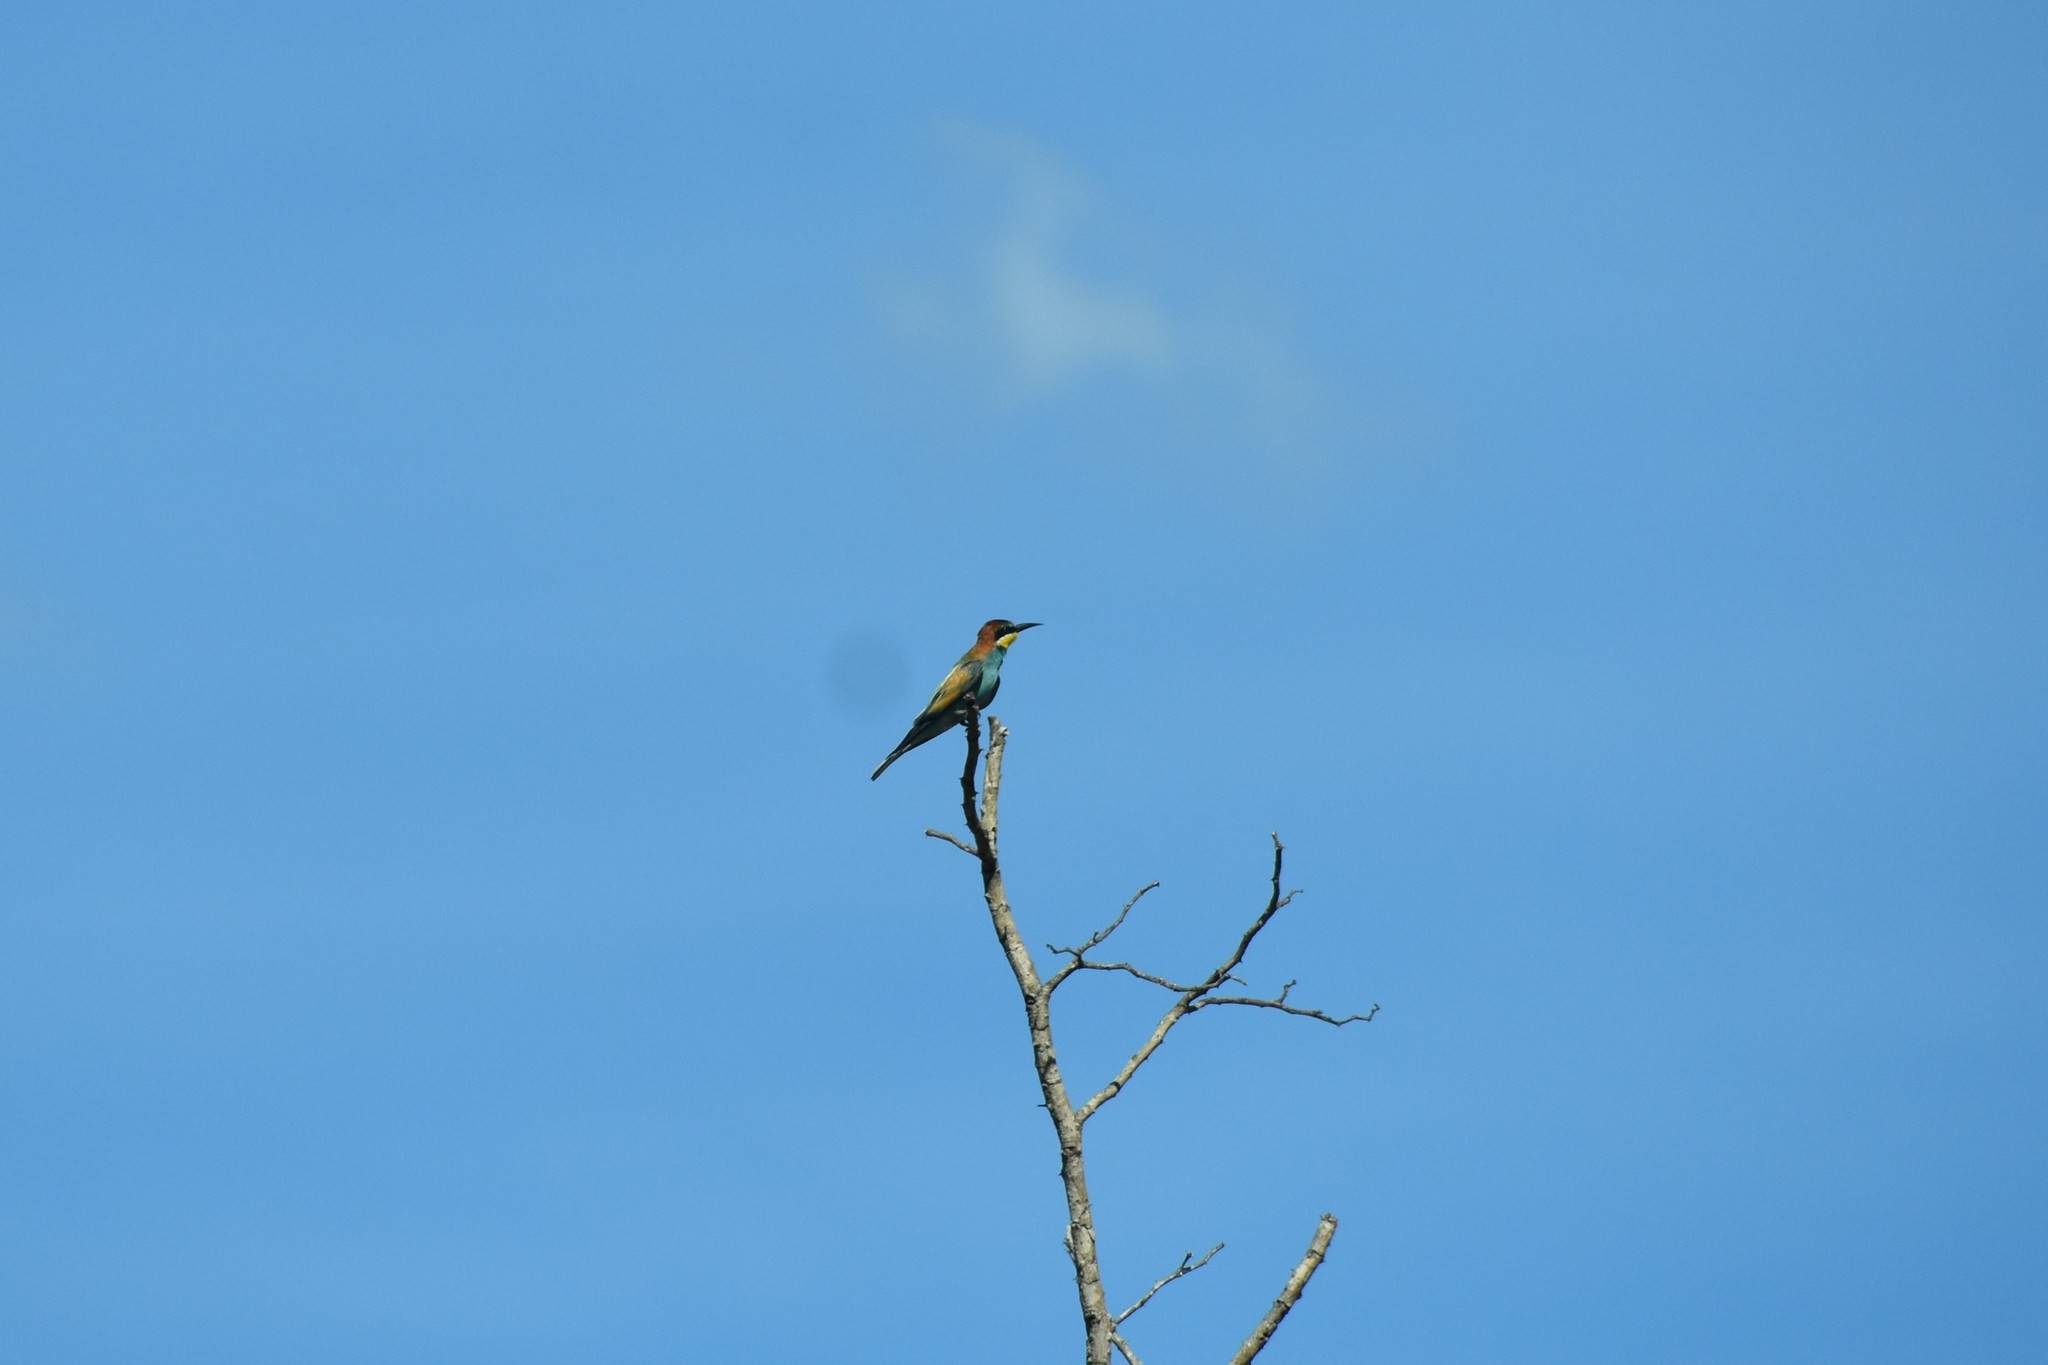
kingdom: Animalia
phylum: Chordata
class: Aves
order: Coraciiformes
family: Meropidae
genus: Merops
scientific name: Merops apiaster
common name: European bee-eater
